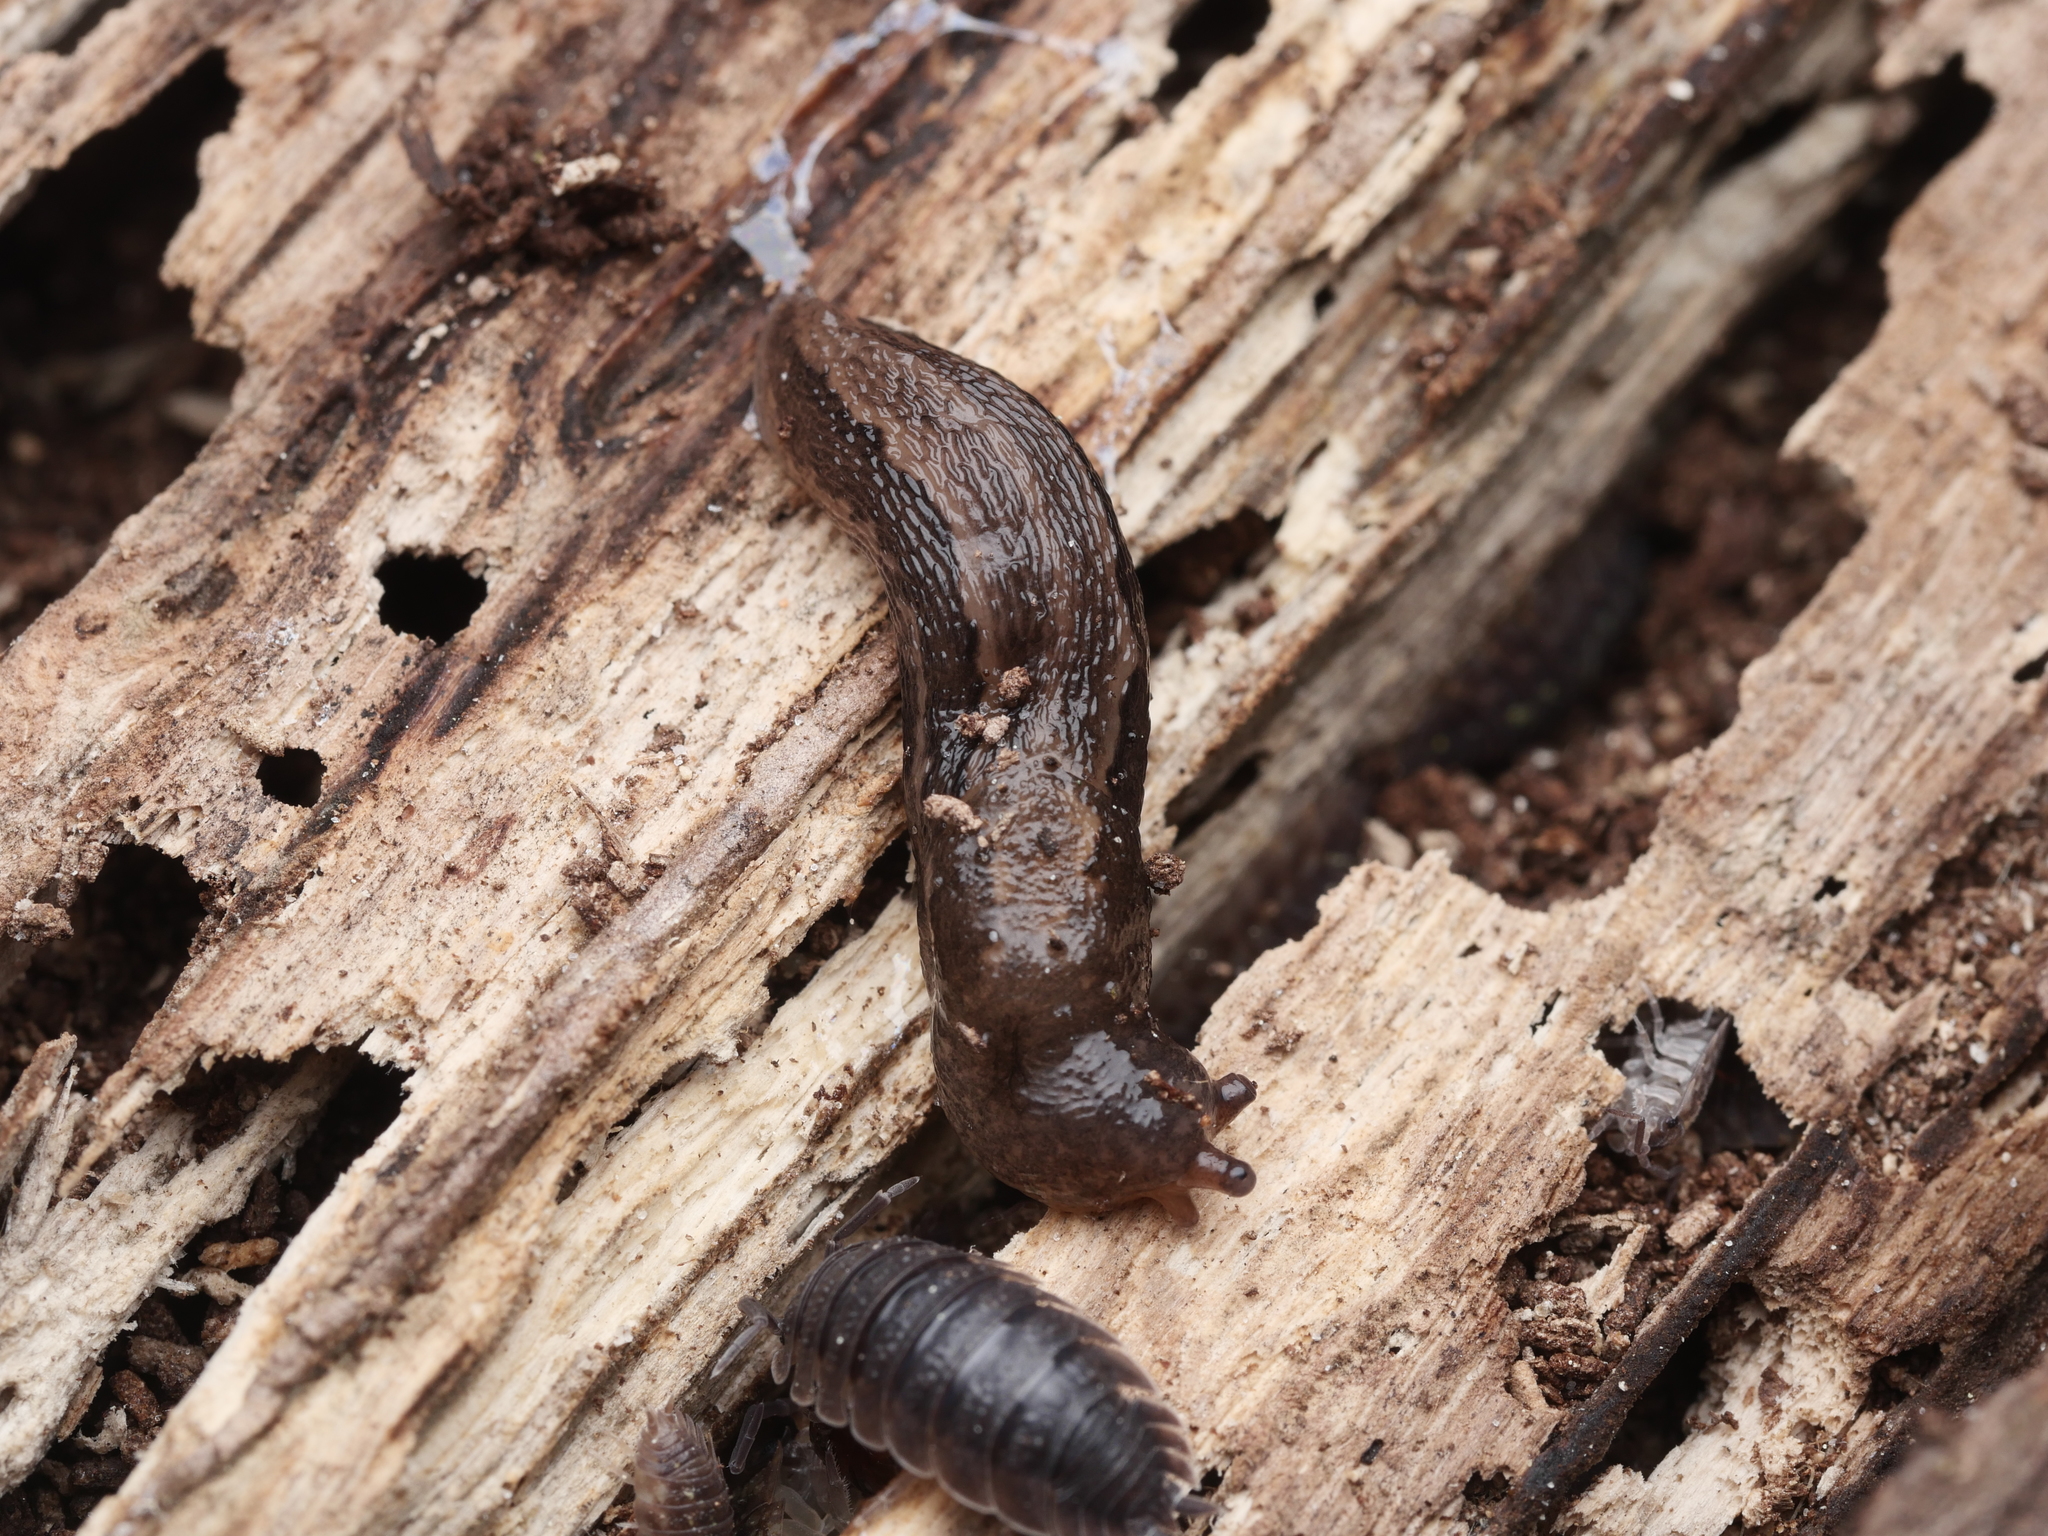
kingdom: Animalia
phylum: Mollusca
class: Gastropoda
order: Stylommatophora
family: Limacidae
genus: Limax
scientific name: Limax maximus
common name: Great grey slug
